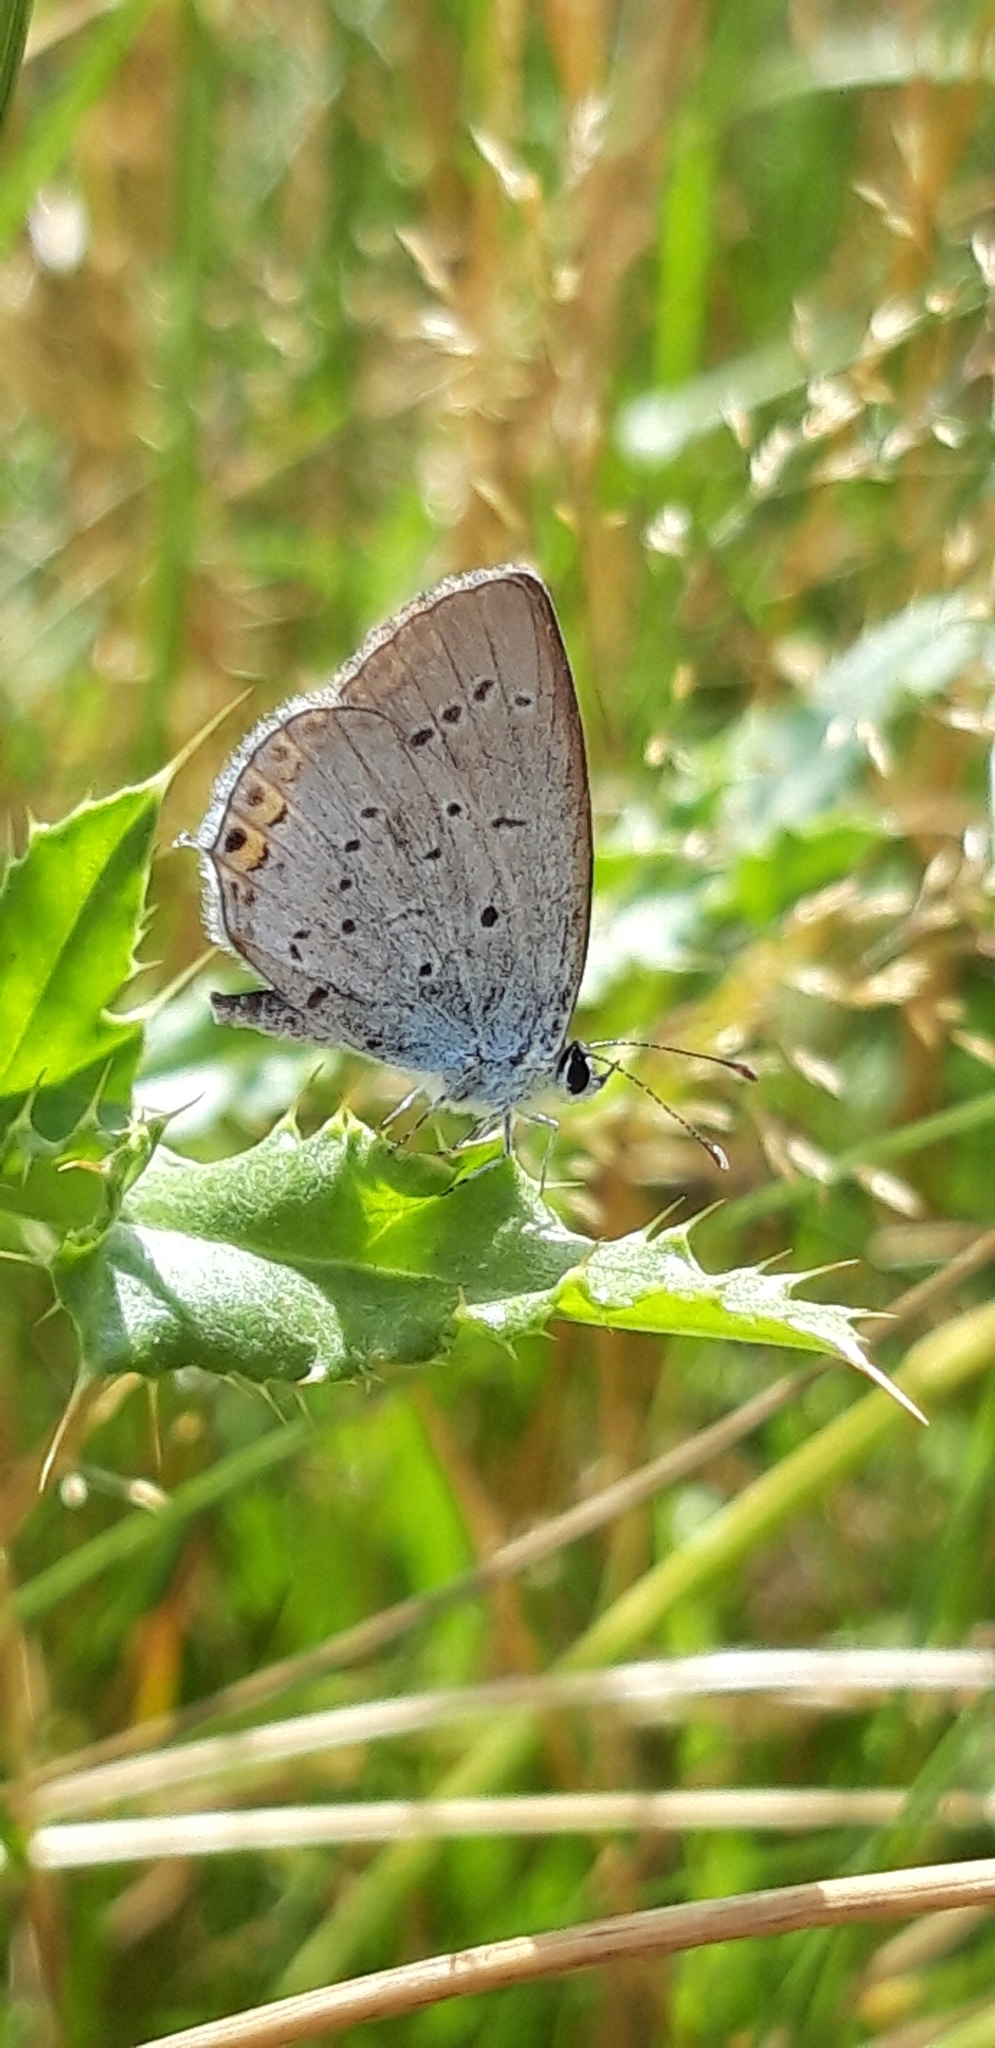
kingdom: Animalia
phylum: Arthropoda
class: Insecta
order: Lepidoptera
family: Lycaenidae
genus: Elkalyce
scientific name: Elkalyce argiades
